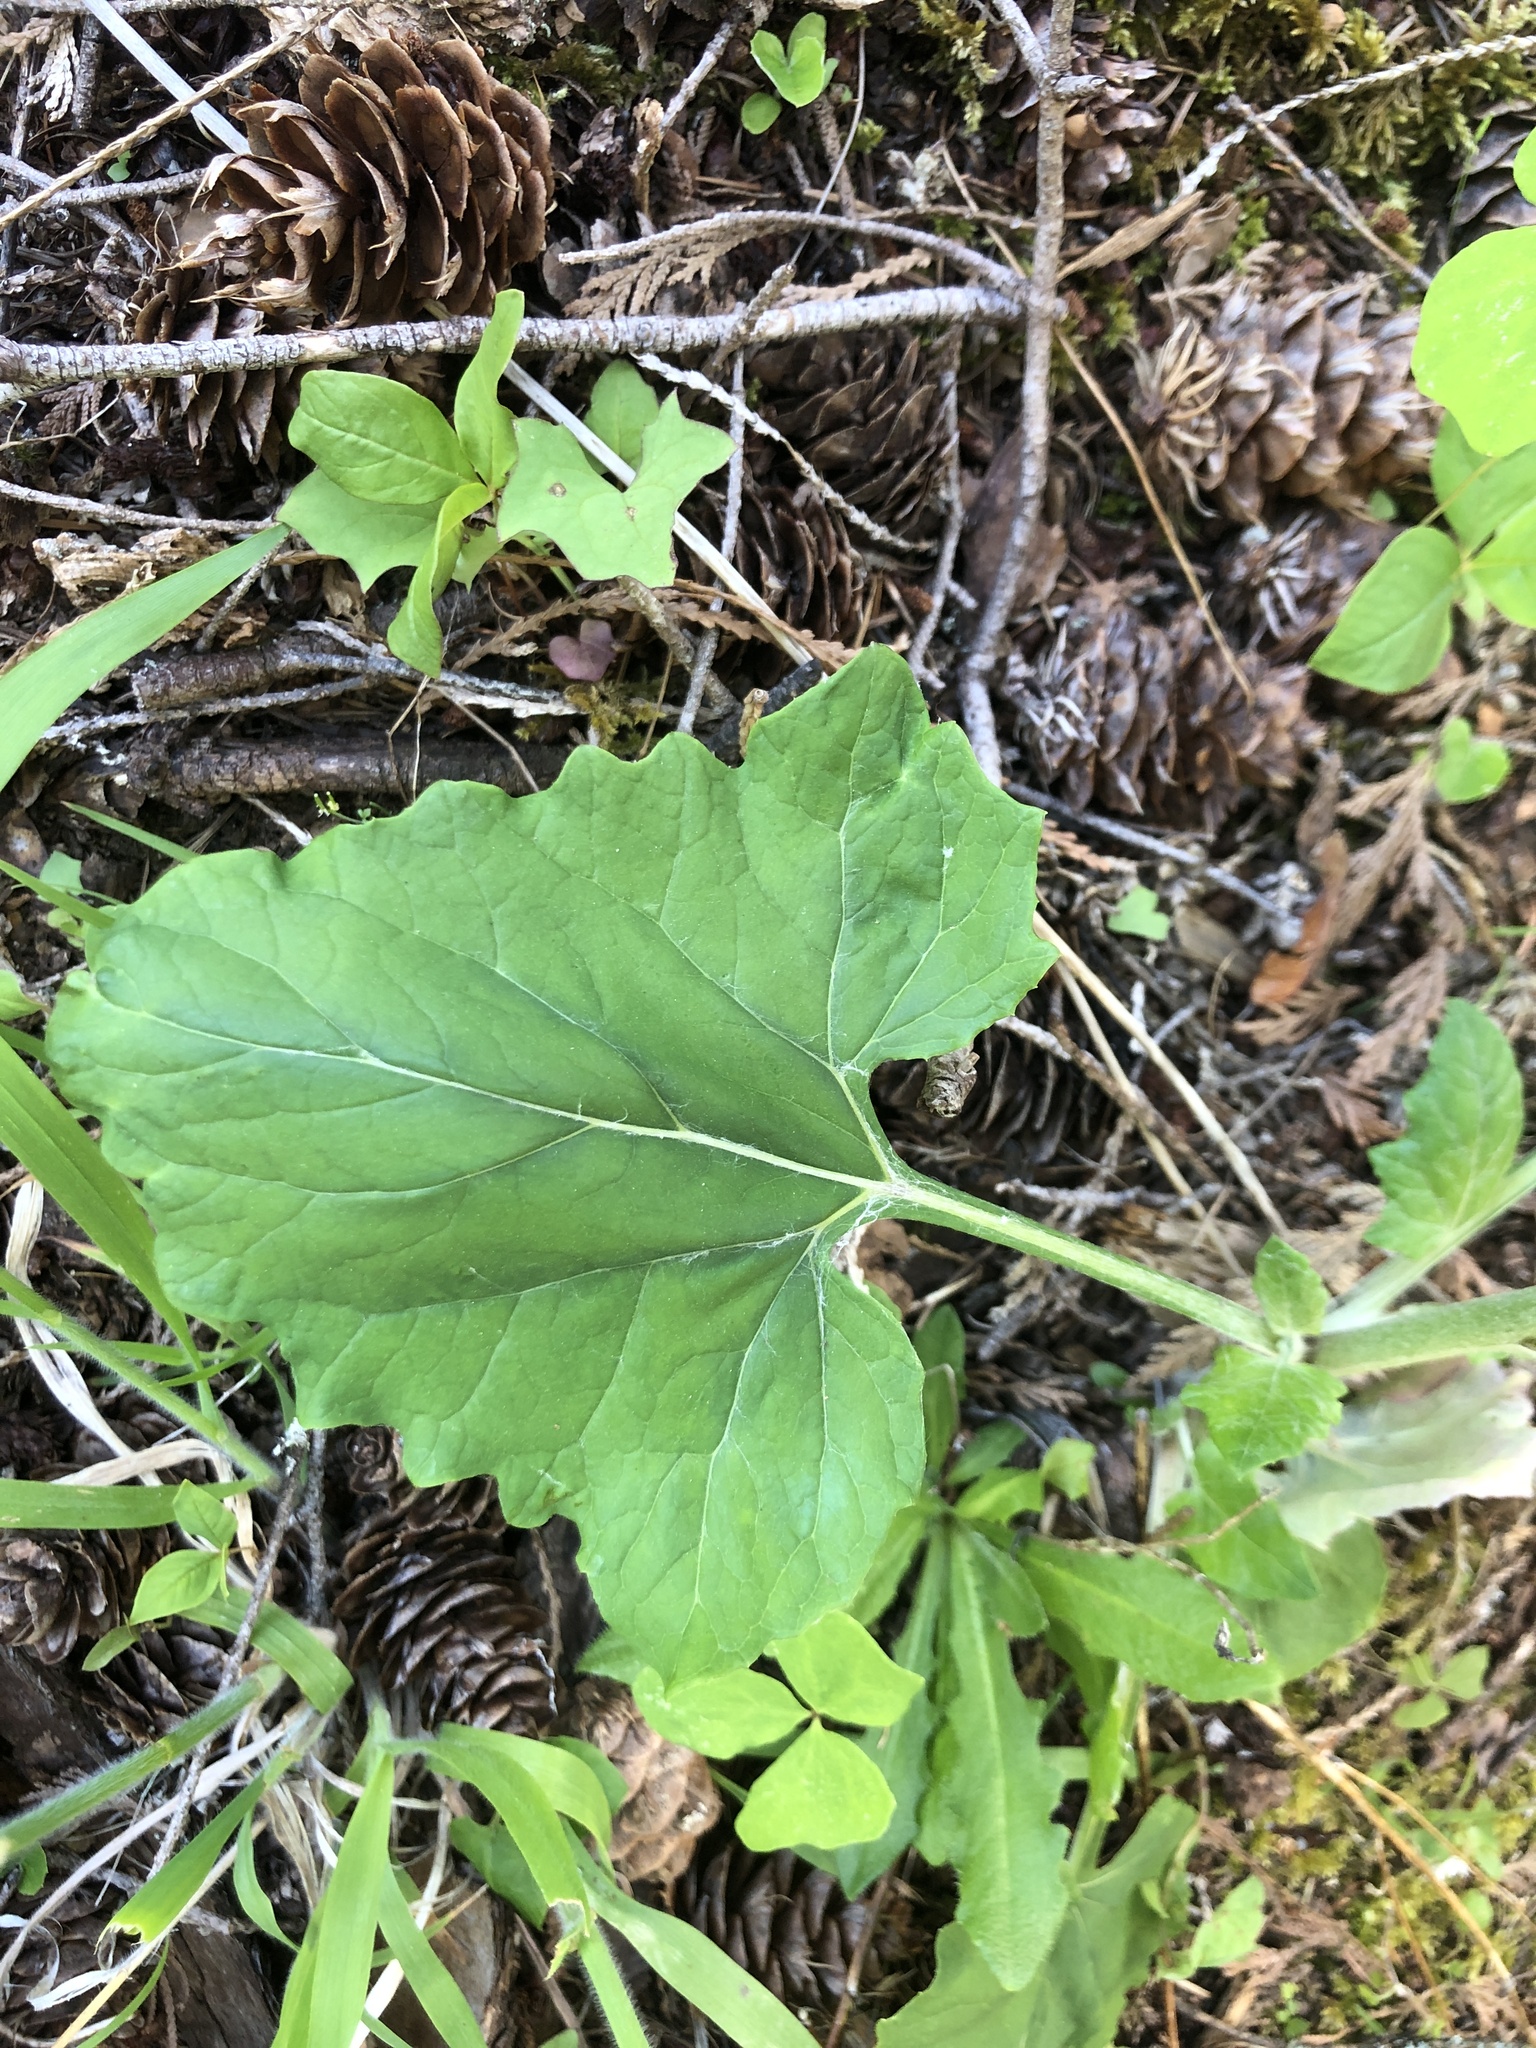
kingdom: Plantae
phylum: Tracheophyta
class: Magnoliopsida
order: Asterales
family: Asteraceae
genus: Adenocaulon
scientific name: Adenocaulon bicolor
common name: Trailplant
